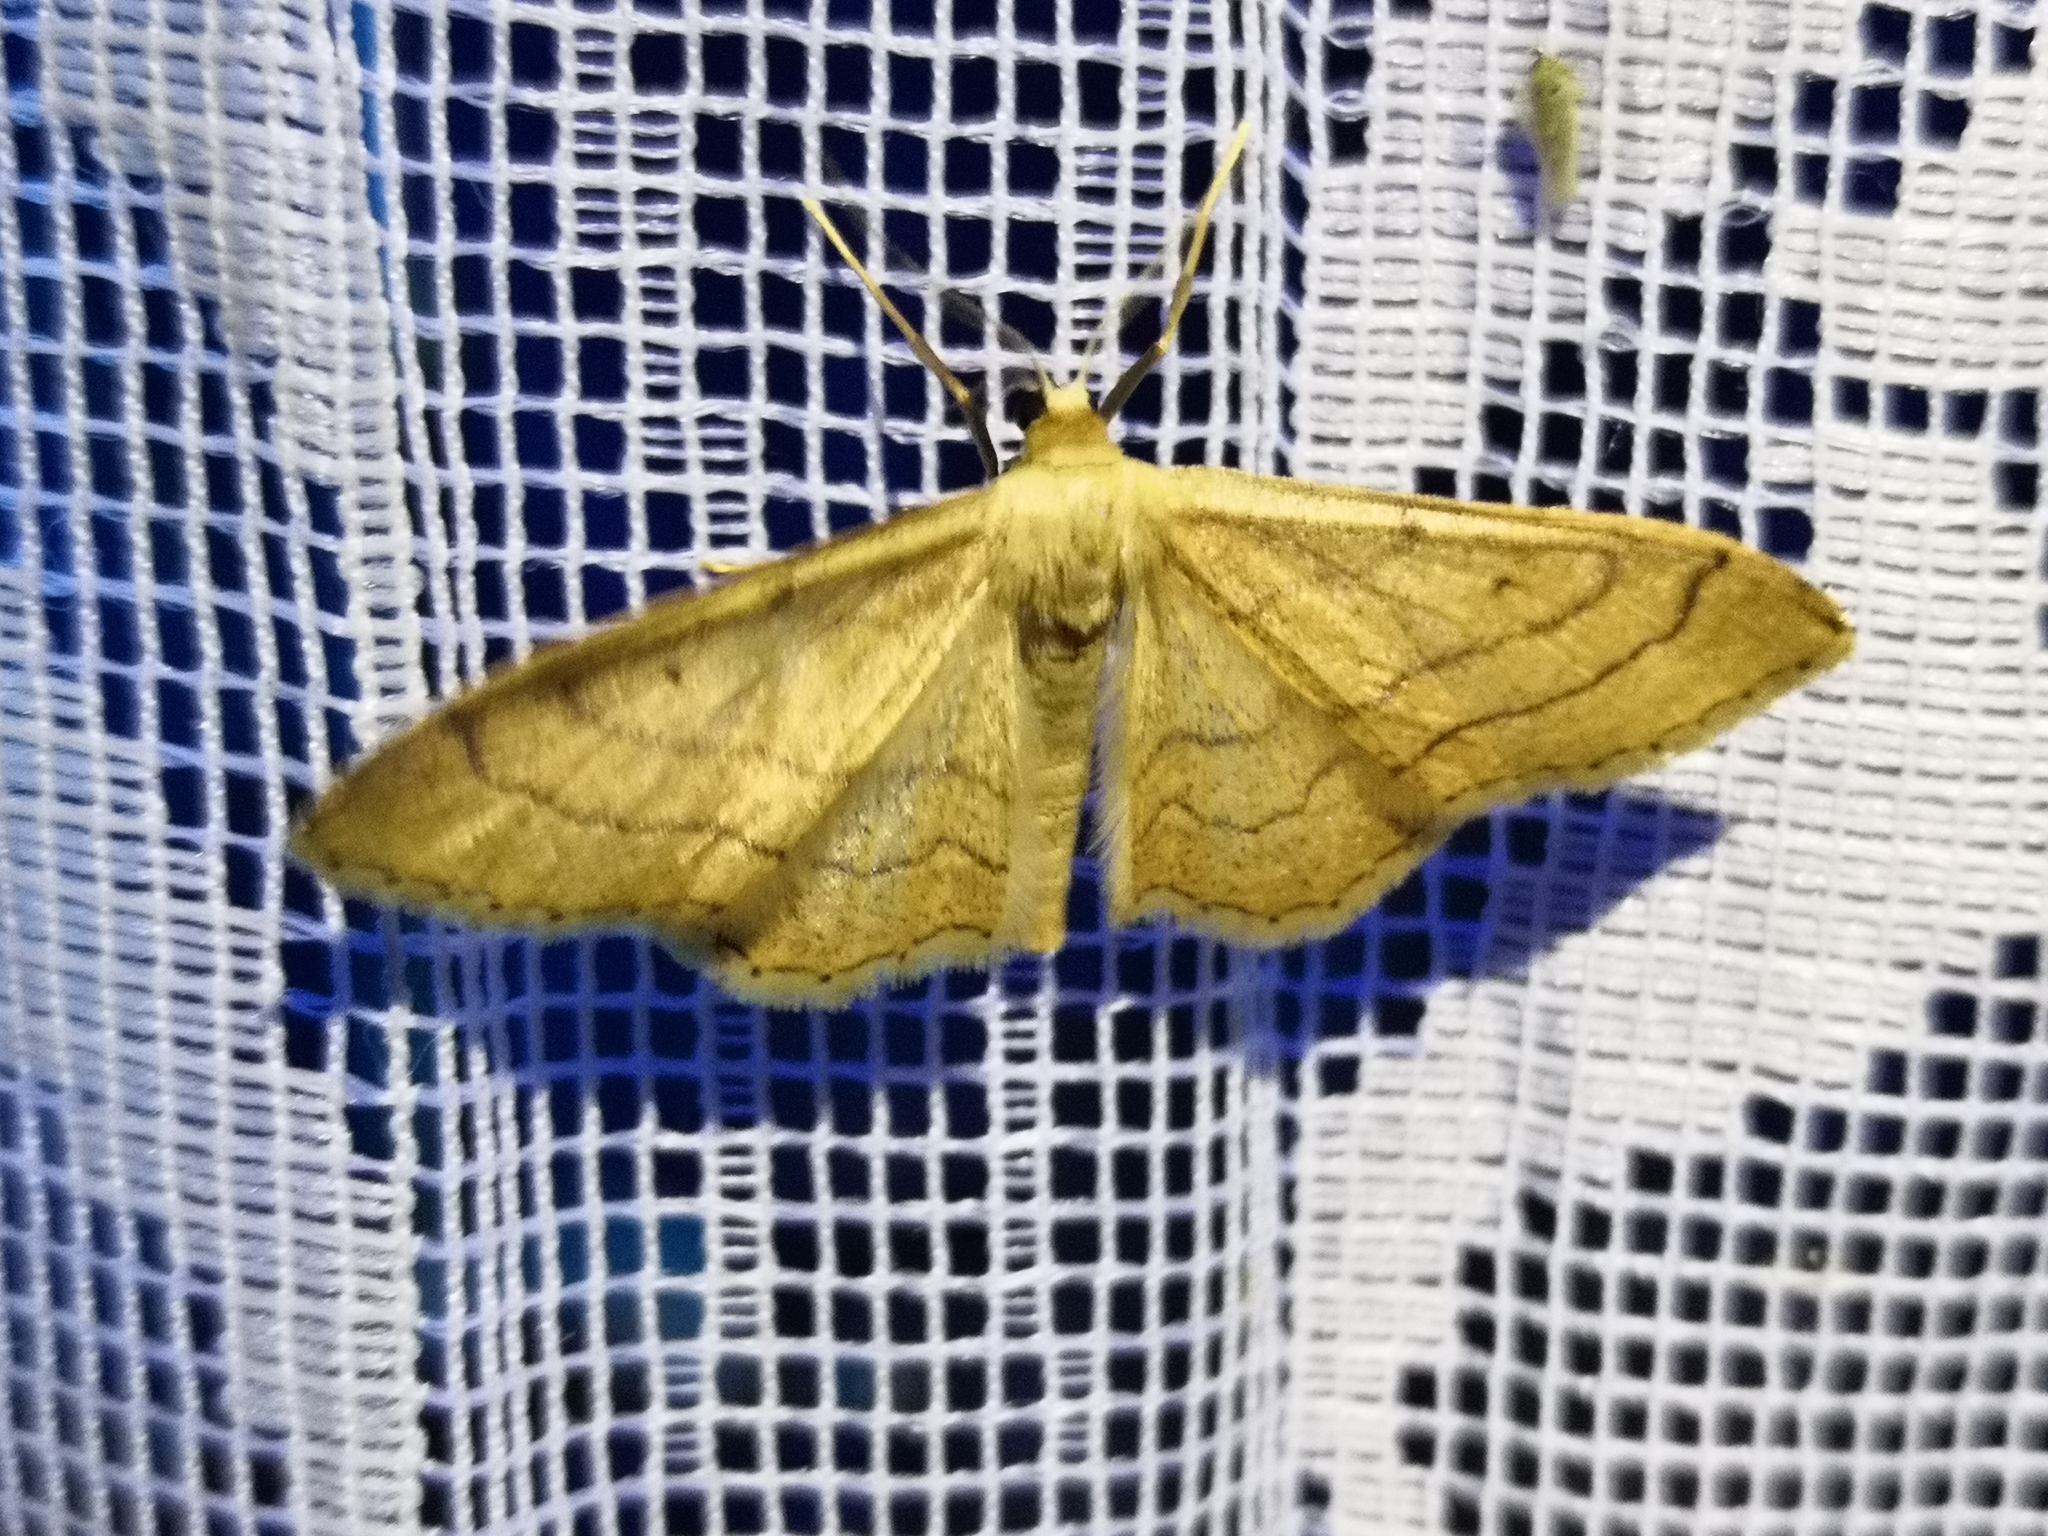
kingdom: Animalia
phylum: Arthropoda
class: Insecta
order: Lepidoptera
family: Geometridae
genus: Idaea
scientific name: Idaea aversata
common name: Riband wave
